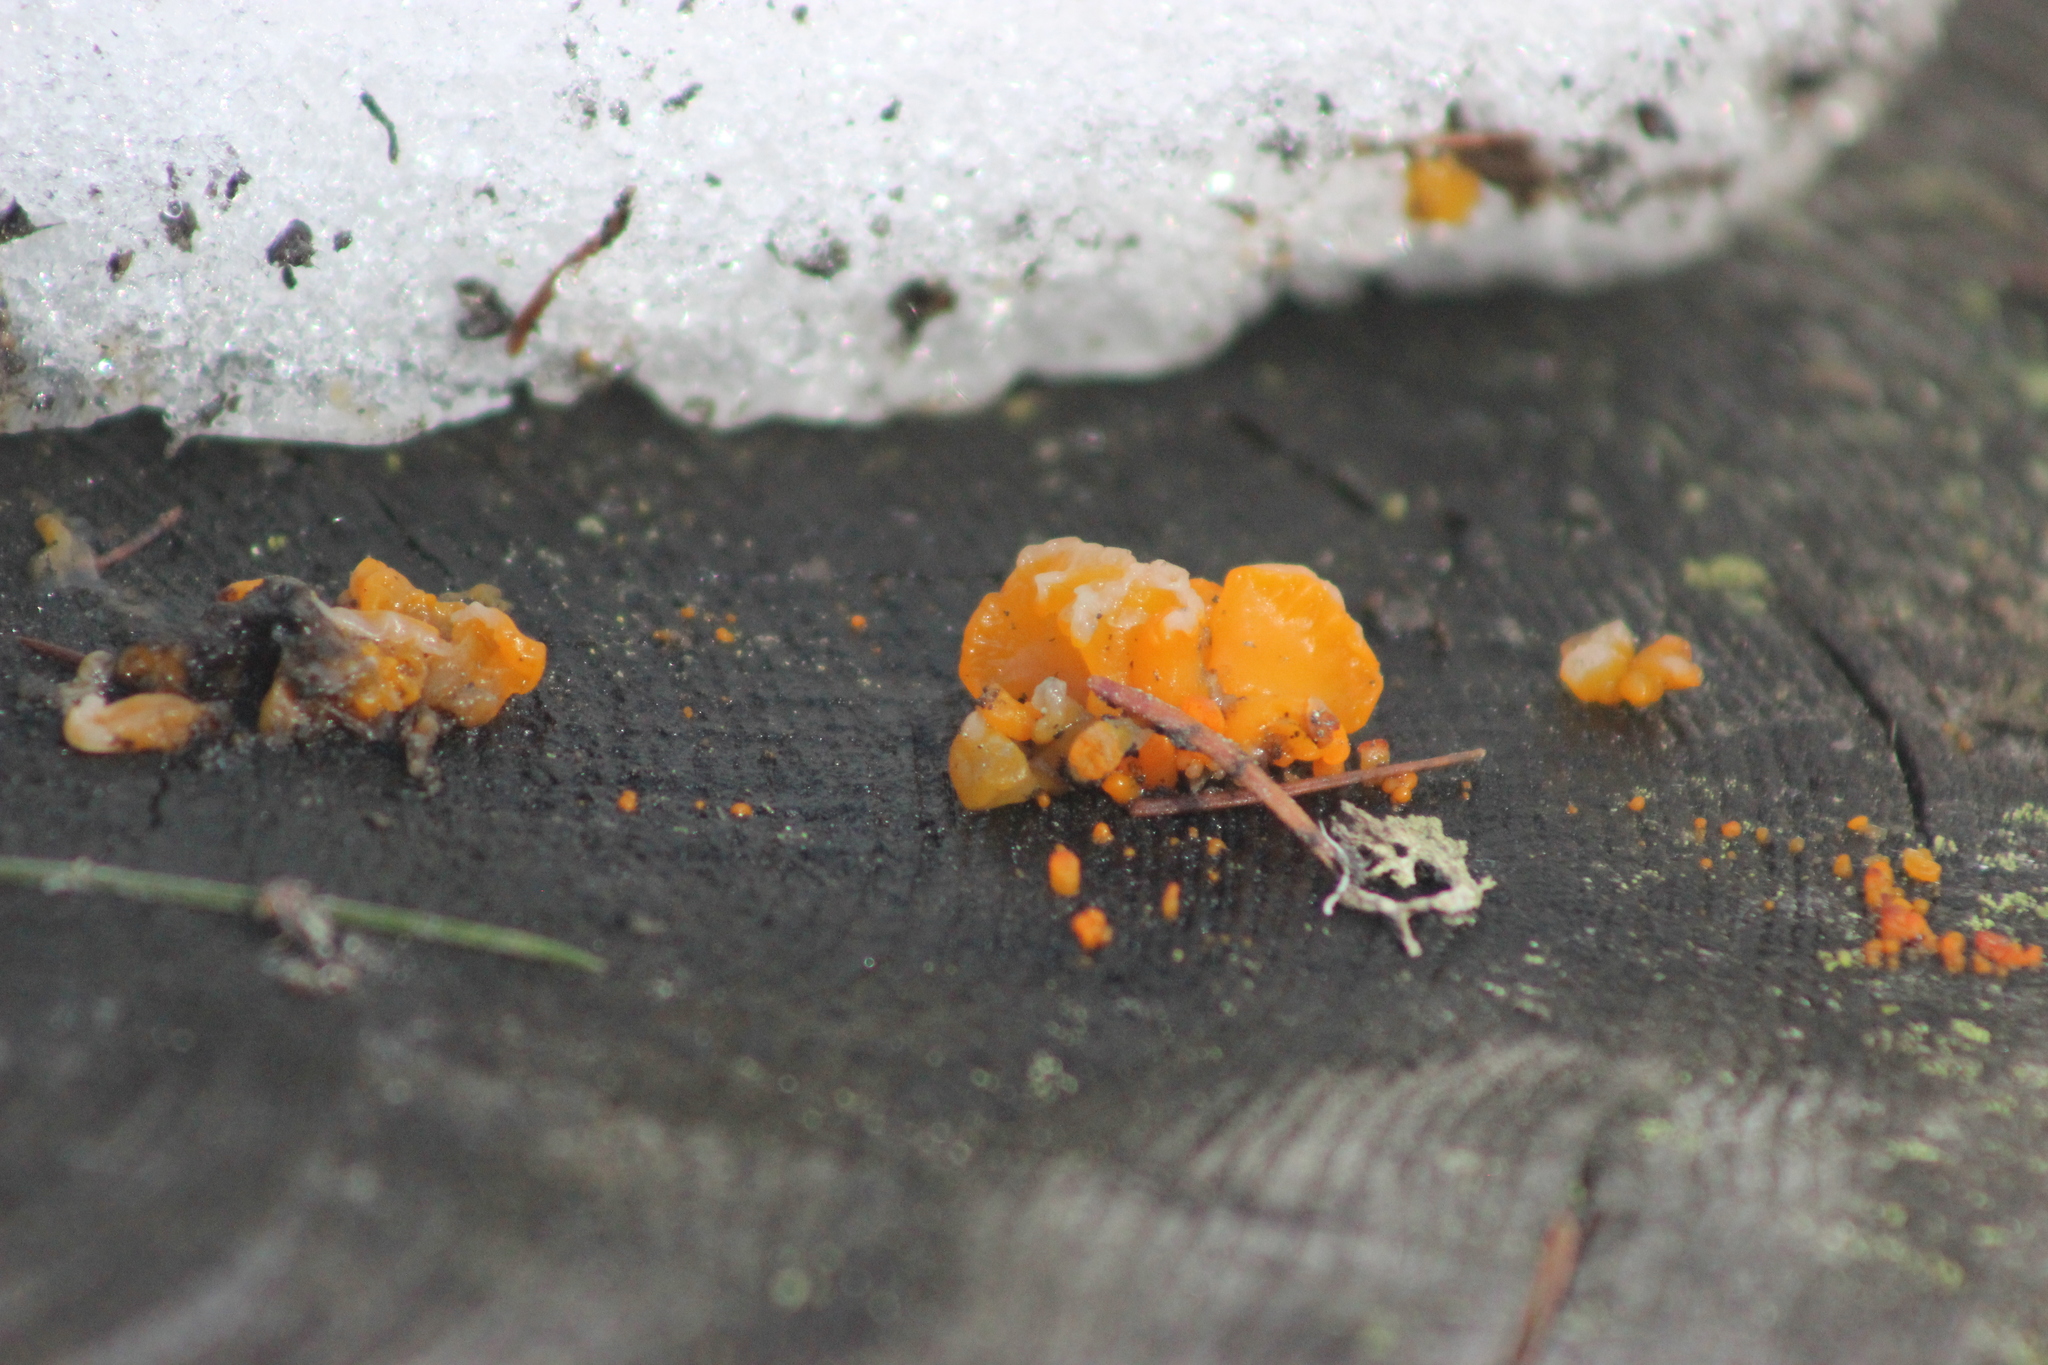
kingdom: Fungi
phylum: Basidiomycota
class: Dacrymycetes
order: Dacrymycetales
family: Dacrymycetaceae
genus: Dacrymyces
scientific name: Dacrymyces chrysospermus
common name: Orange jelly spot
